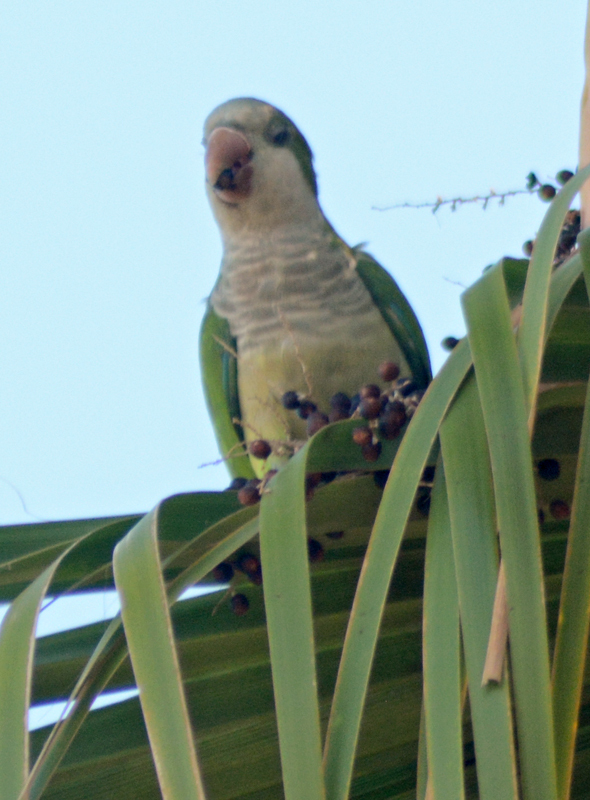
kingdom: Animalia
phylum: Chordata
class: Aves
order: Psittaciformes
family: Psittacidae
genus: Myiopsitta
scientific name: Myiopsitta monachus
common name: Monk parakeet
